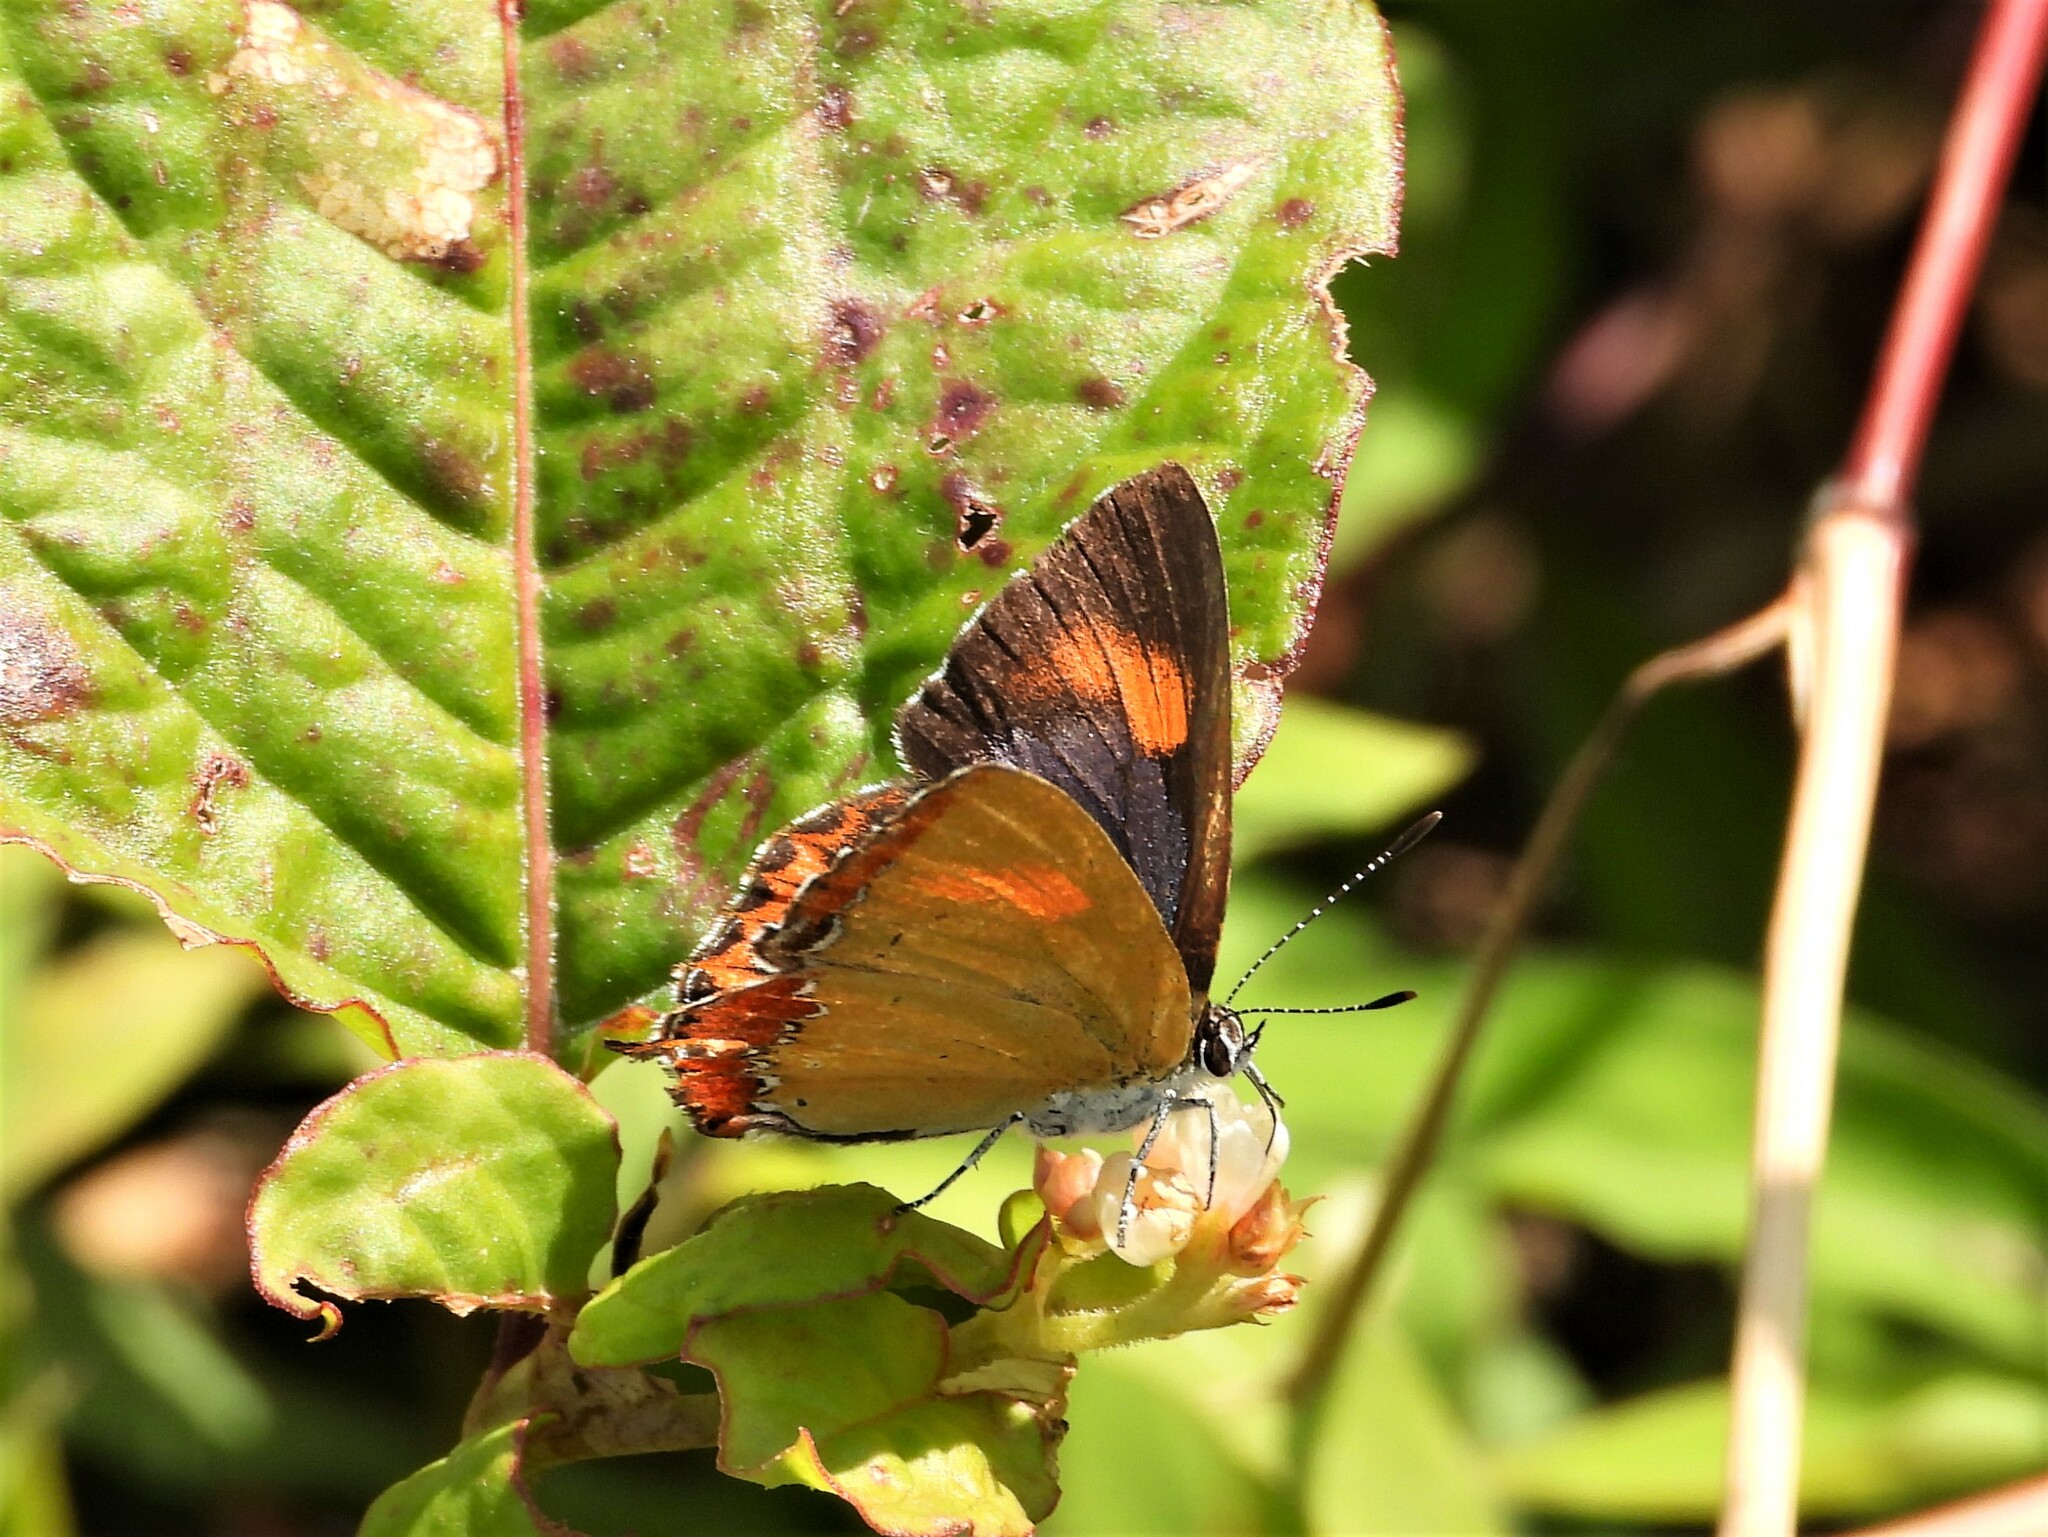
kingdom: Animalia
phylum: Arthropoda
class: Insecta
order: Lepidoptera
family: Lycaenidae
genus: Heliophorus
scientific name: Heliophorus epicles
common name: Purple sapphire
